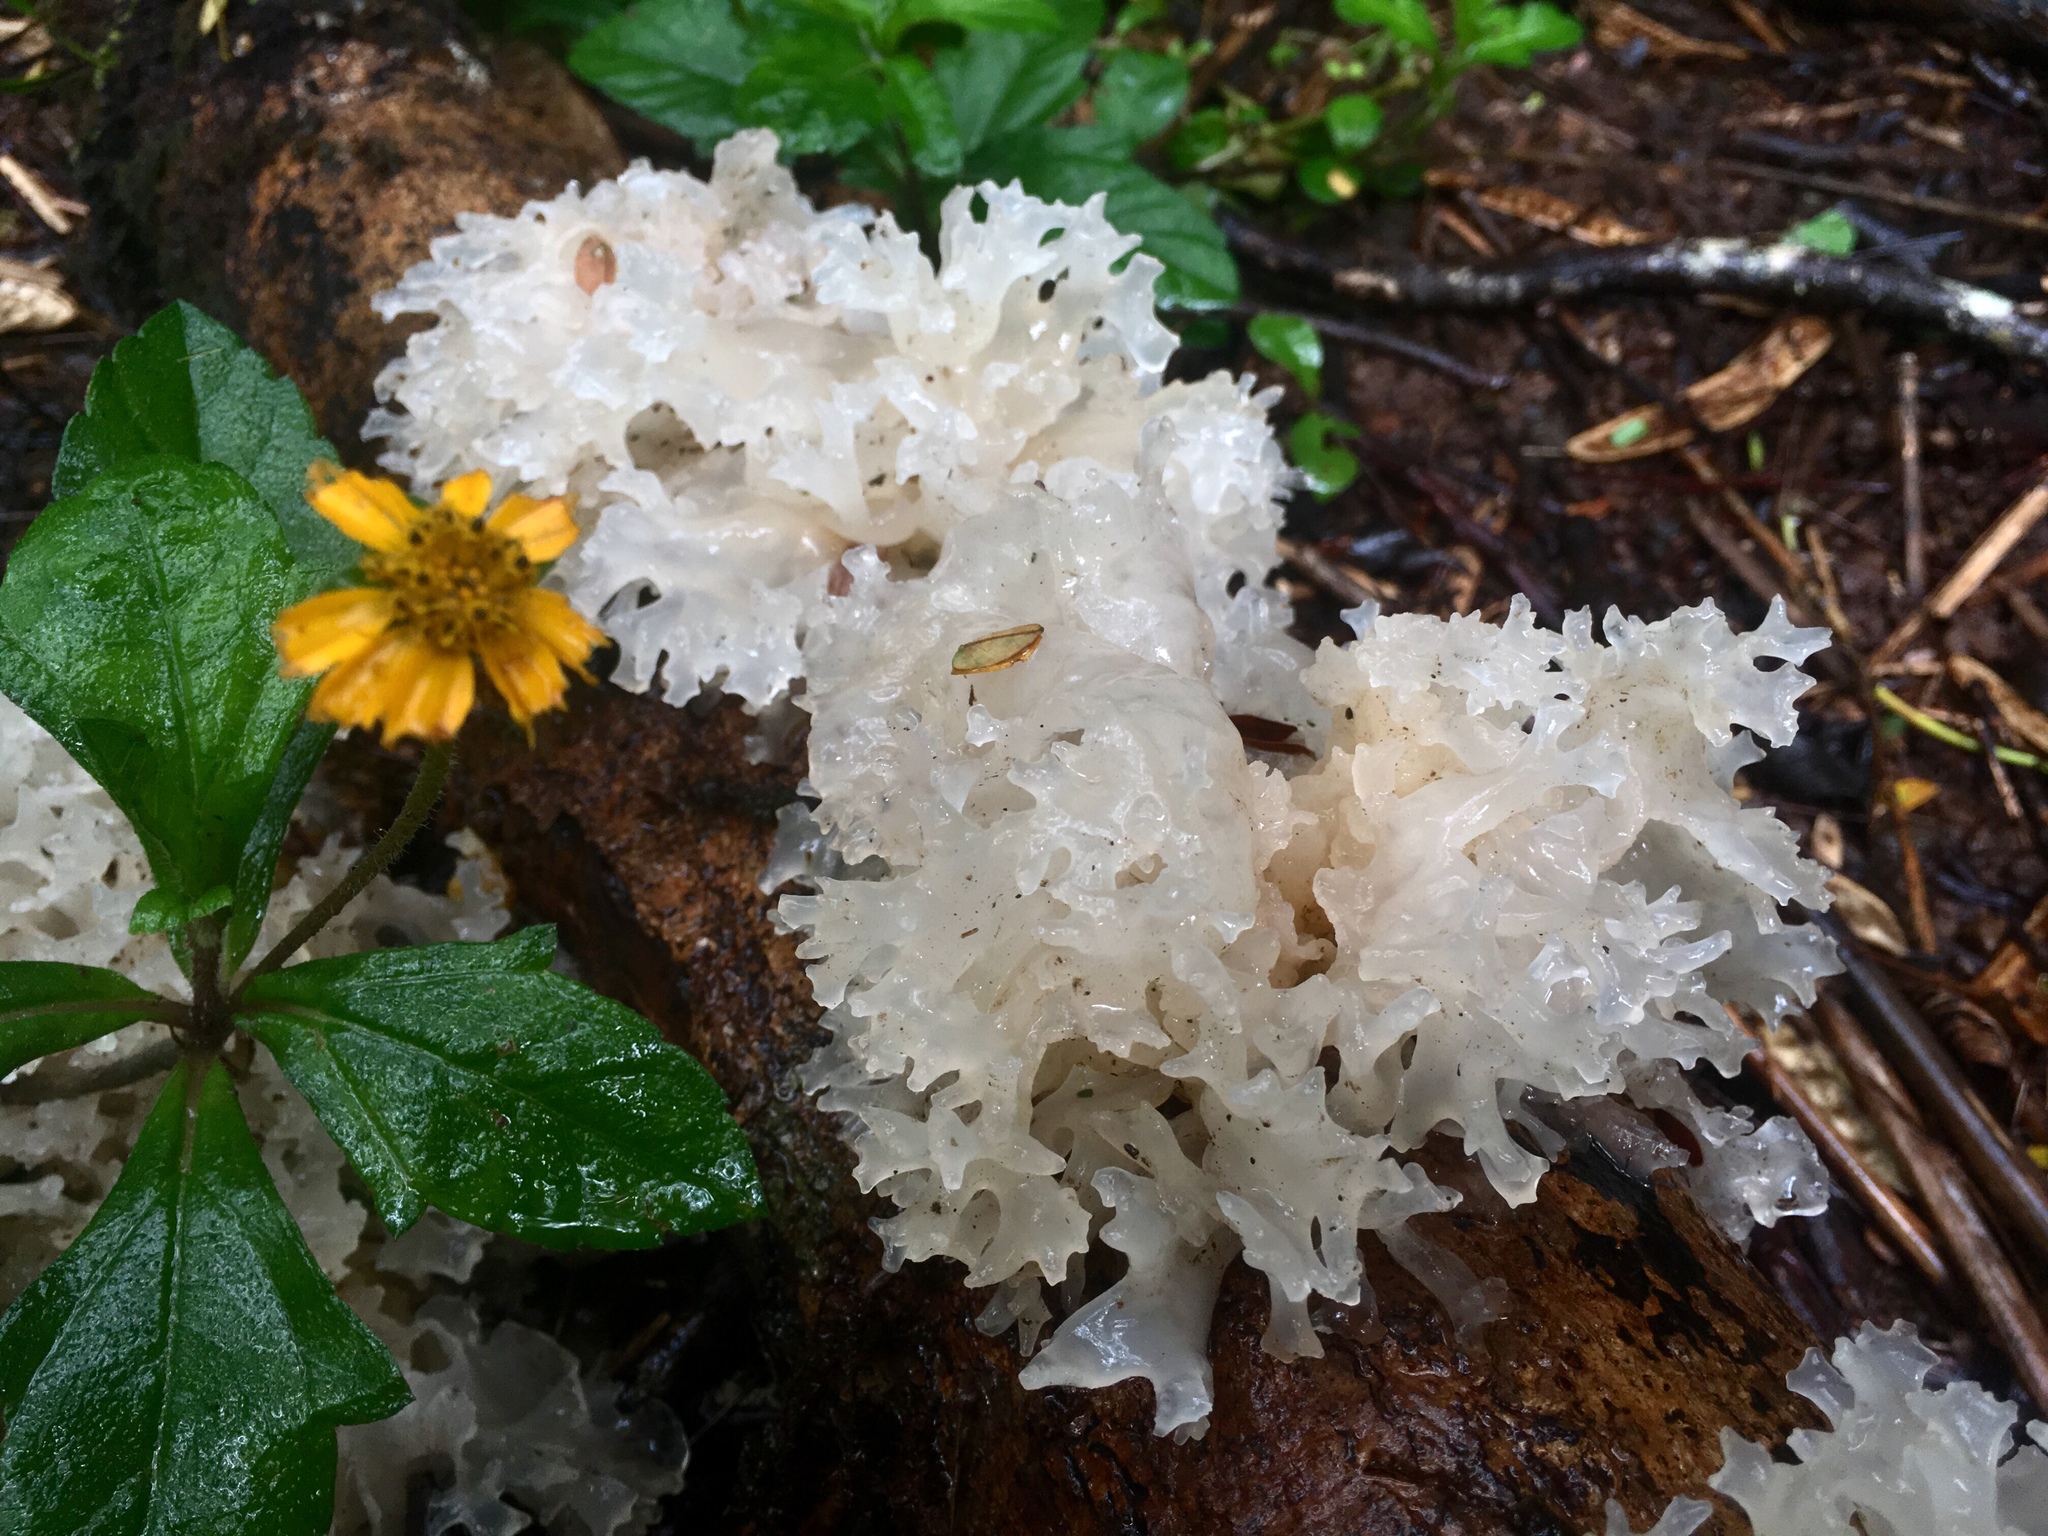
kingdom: Fungi
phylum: Basidiomycota
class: Tremellomycetes
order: Tremellales
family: Tremellaceae
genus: Tremella
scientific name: Tremella fuciformis
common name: Snow fungus
